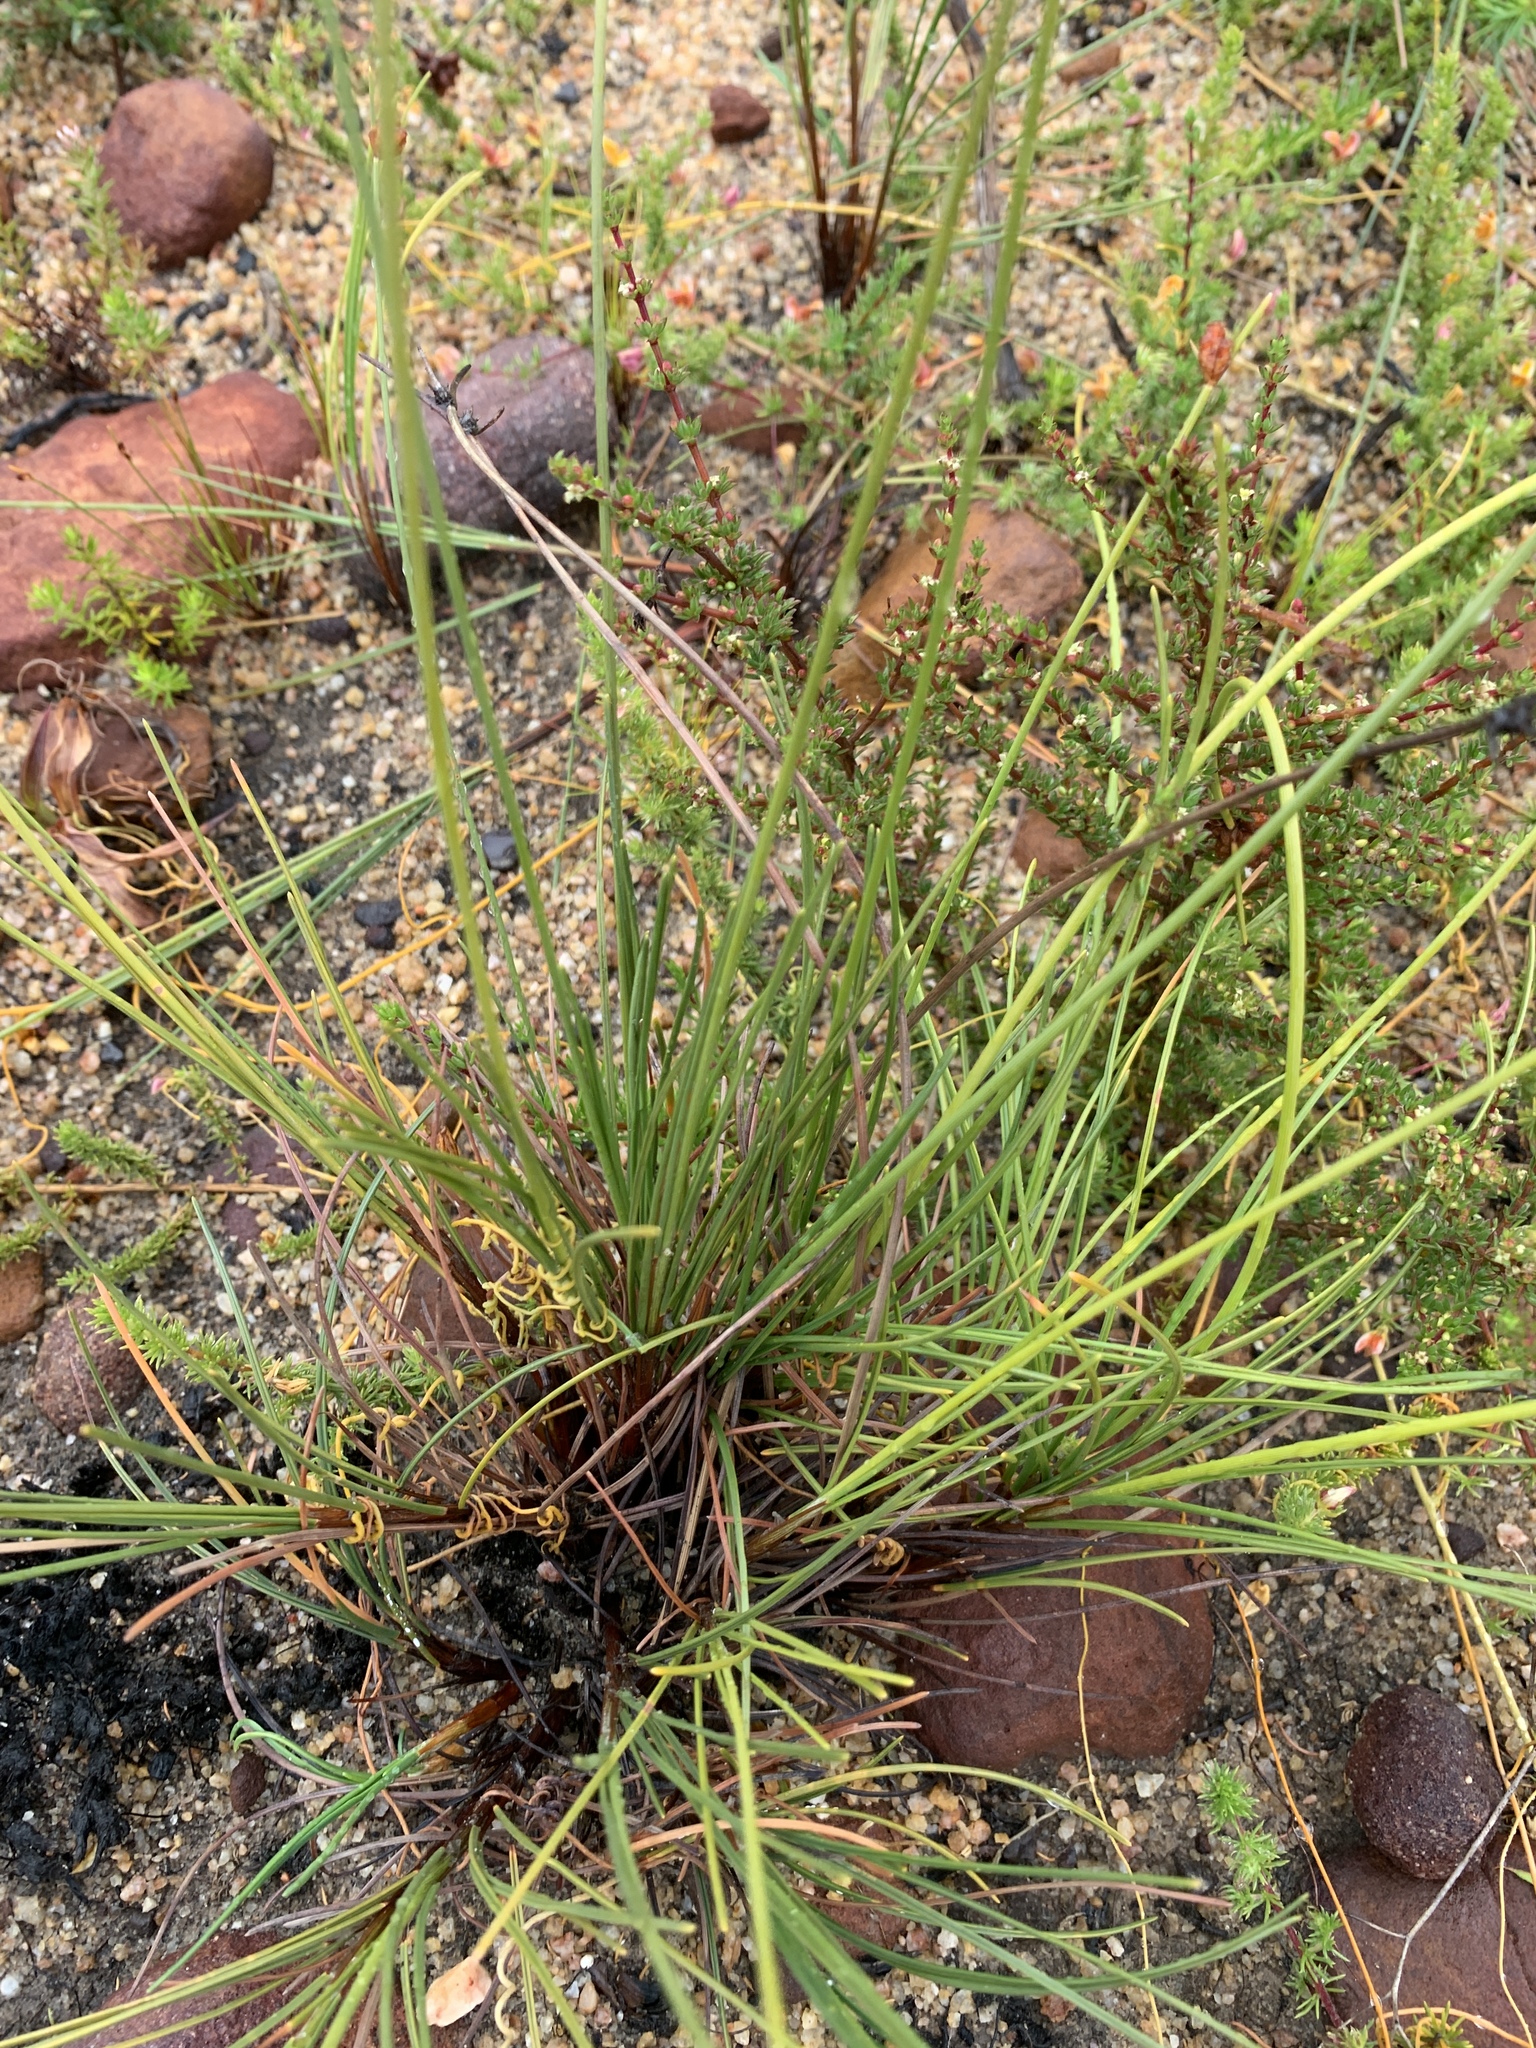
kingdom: Plantae
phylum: Tracheophyta
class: Liliopsida
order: Poales
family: Cyperaceae
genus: Hellmuthia
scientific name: Hellmuthia membranacea
